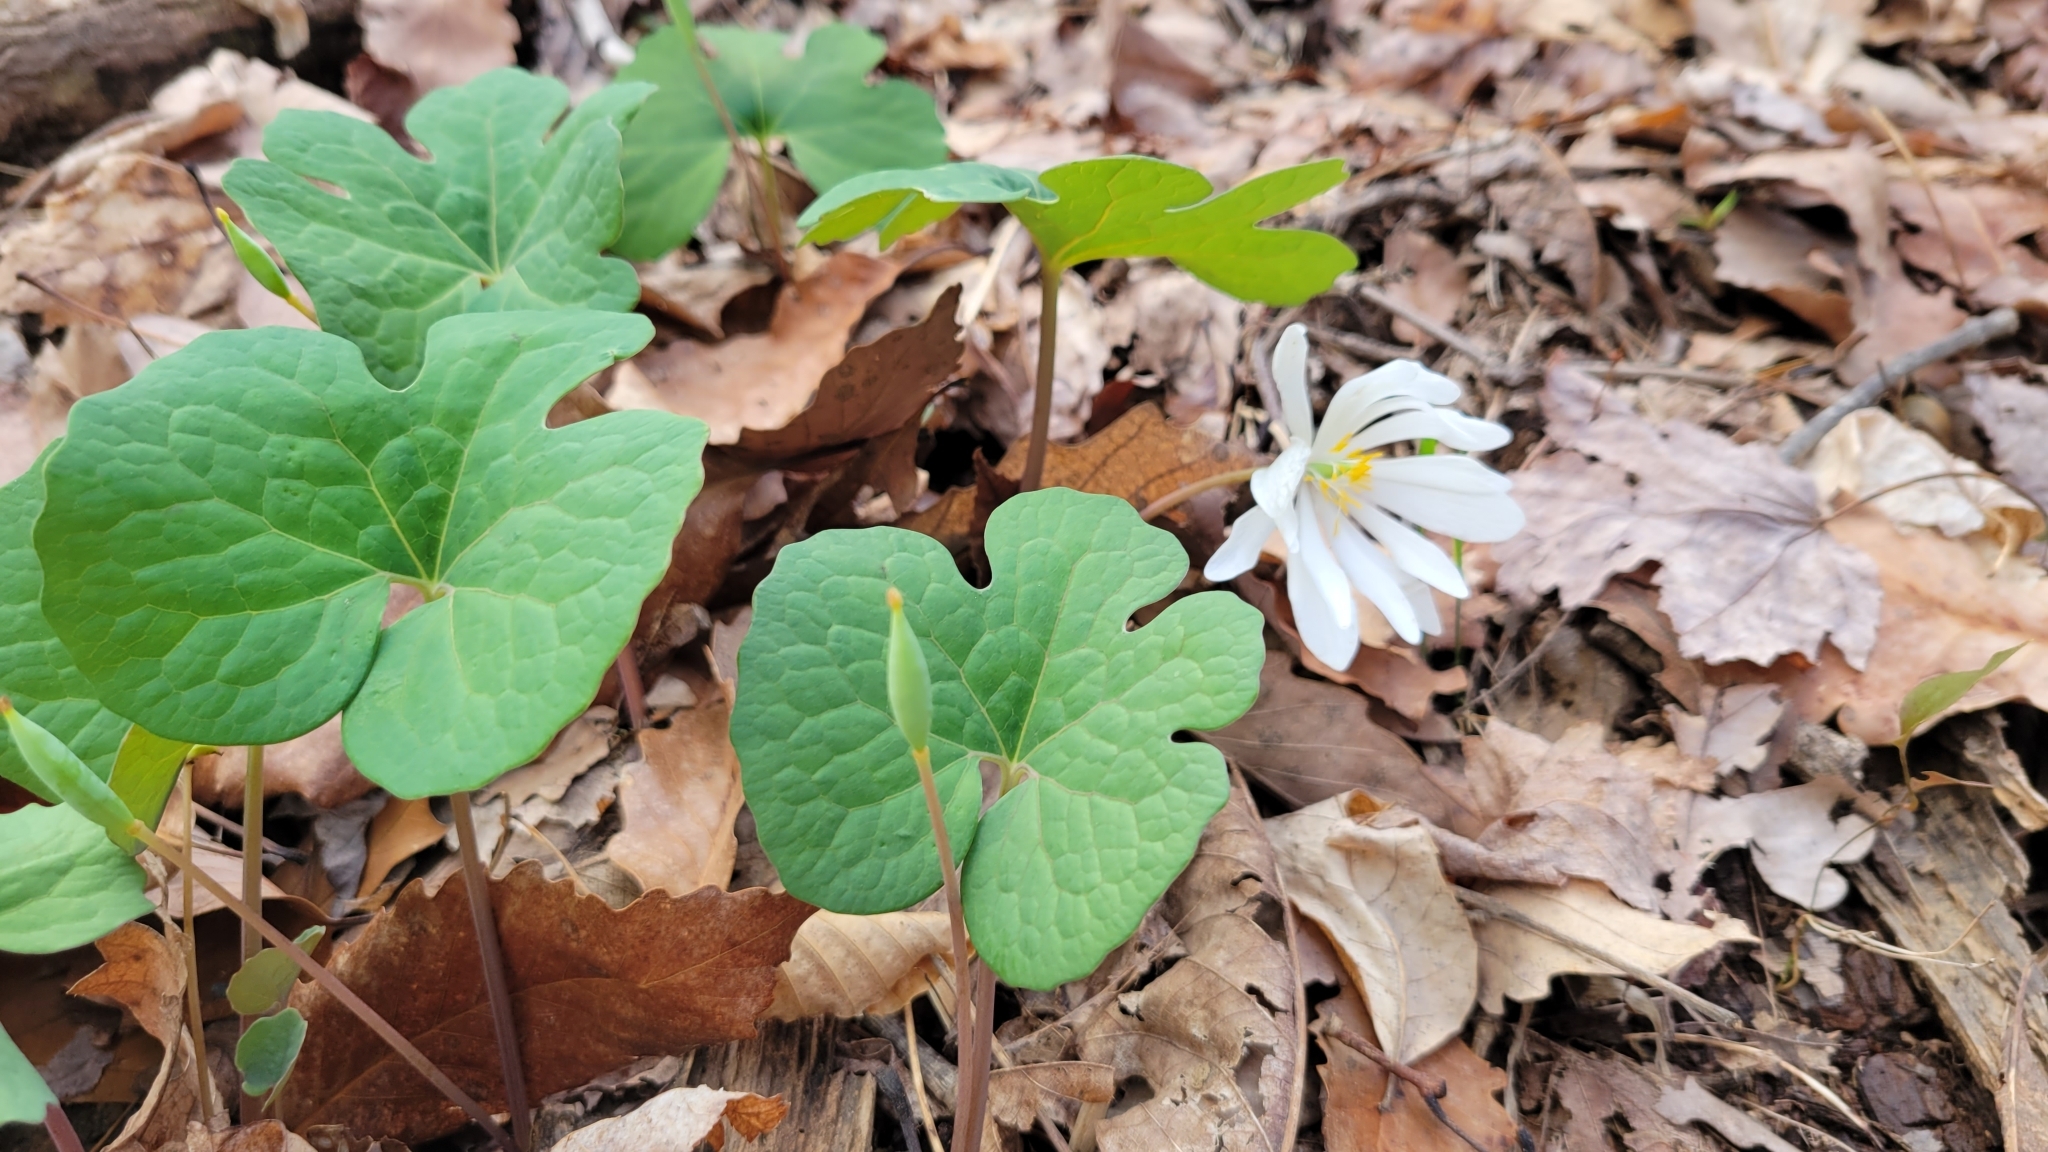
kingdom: Plantae
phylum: Tracheophyta
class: Magnoliopsida
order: Ranunculales
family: Papaveraceae
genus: Sanguinaria
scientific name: Sanguinaria canadensis
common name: Bloodroot
